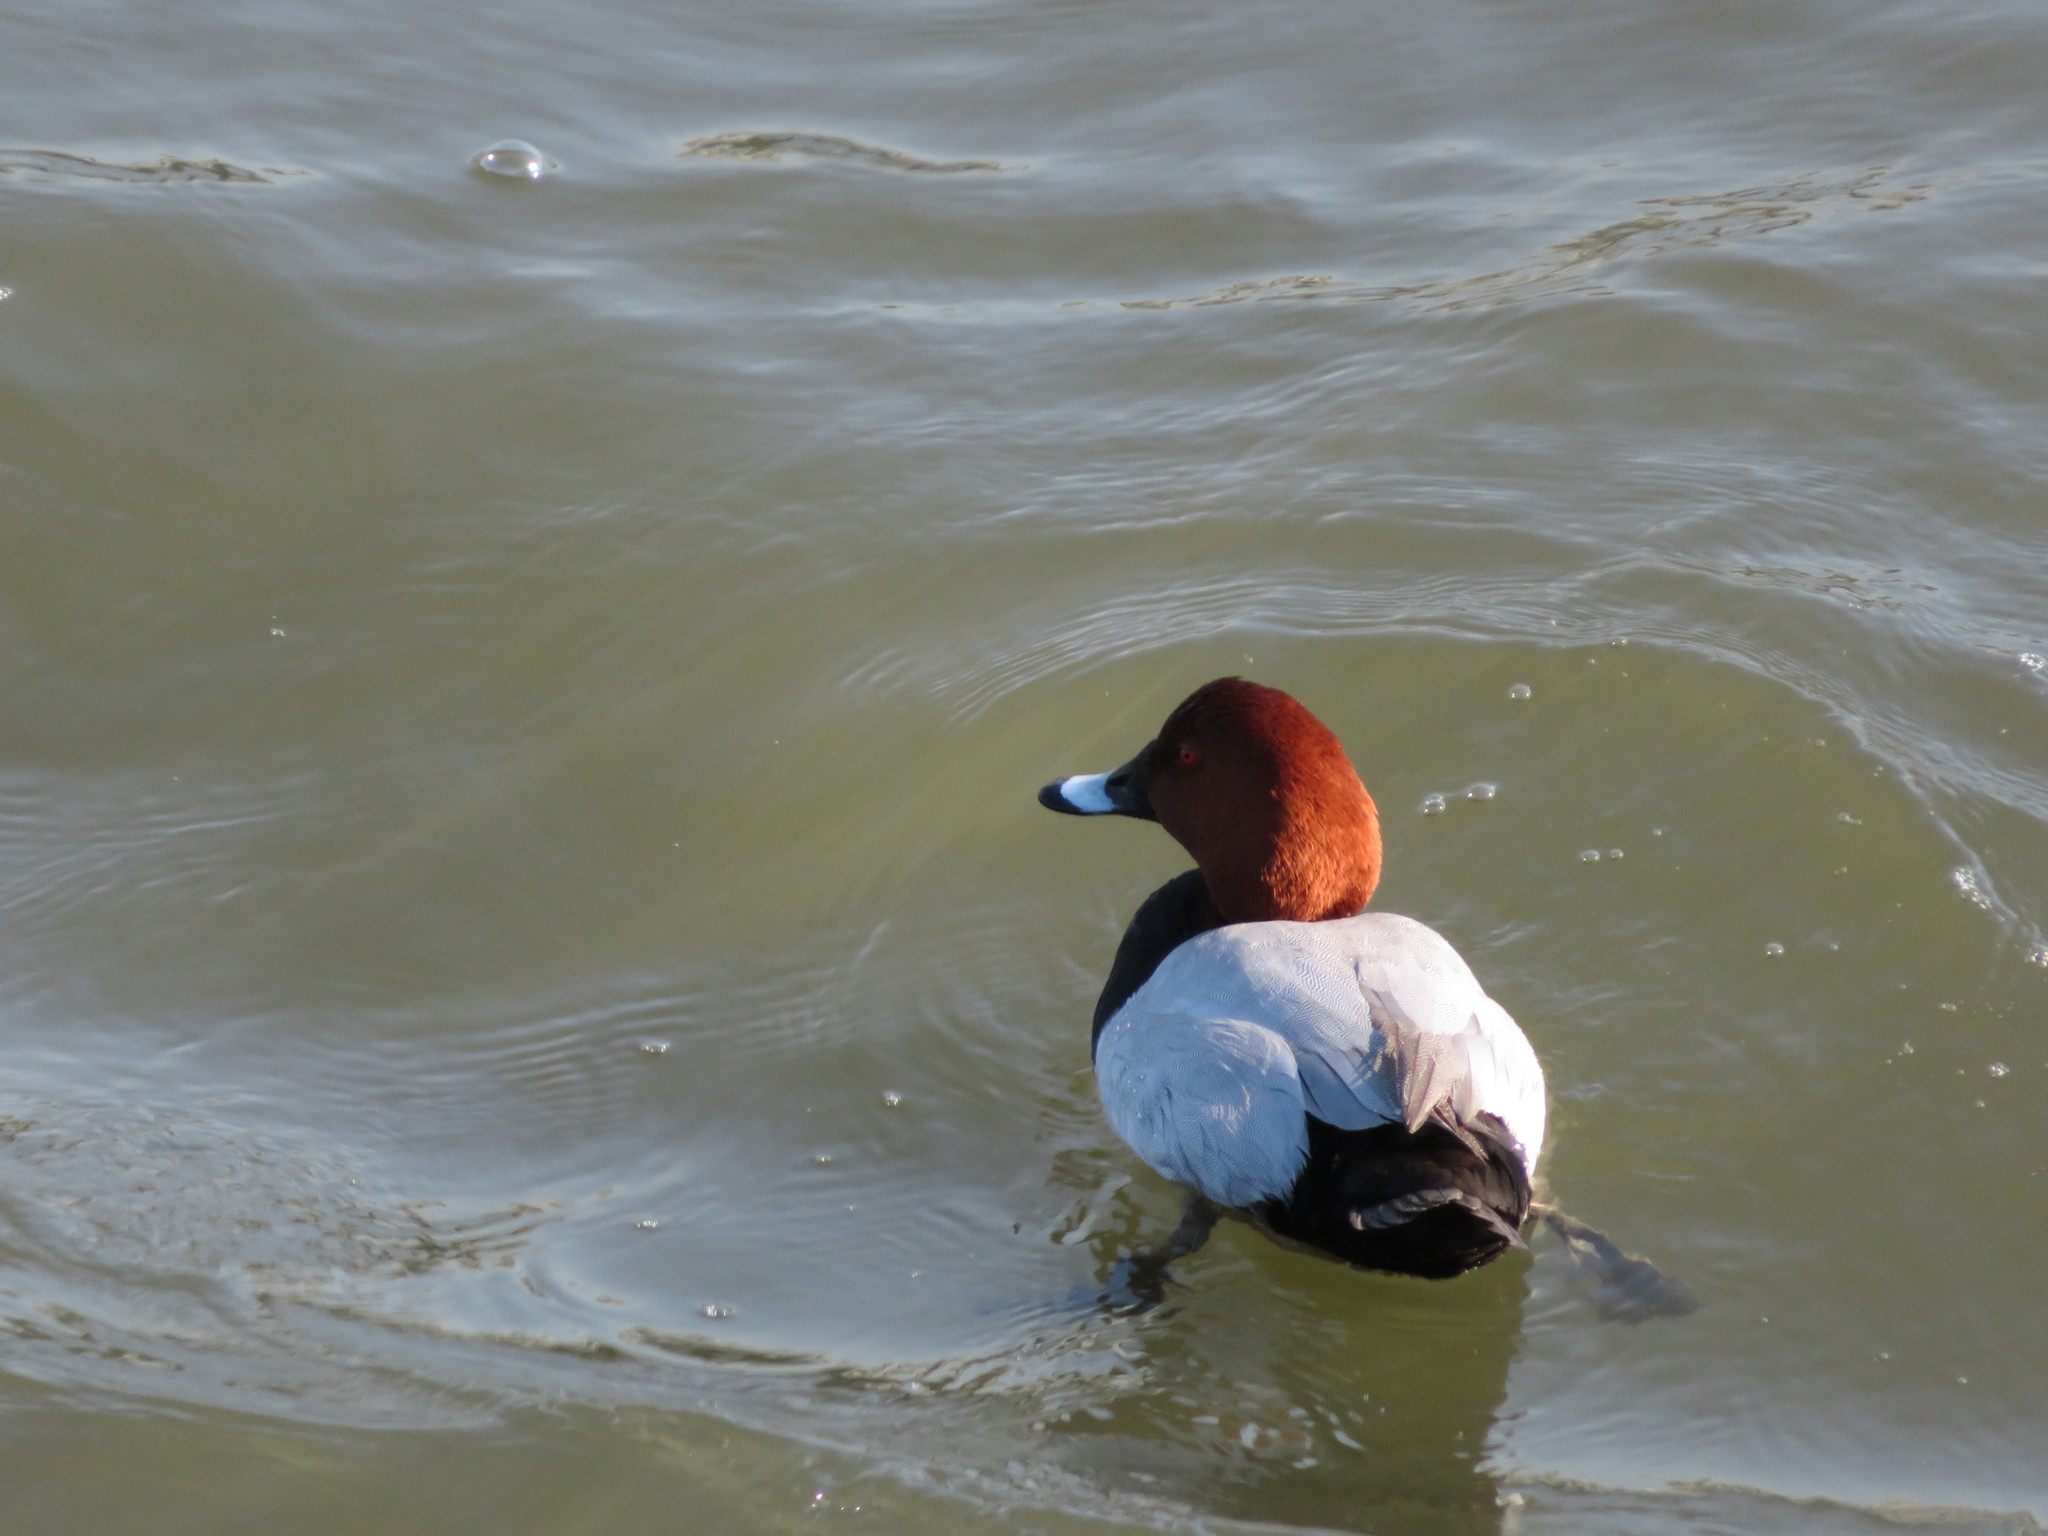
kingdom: Animalia
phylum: Chordata
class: Aves
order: Anseriformes
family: Anatidae
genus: Aythya
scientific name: Aythya ferina
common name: Common pochard
